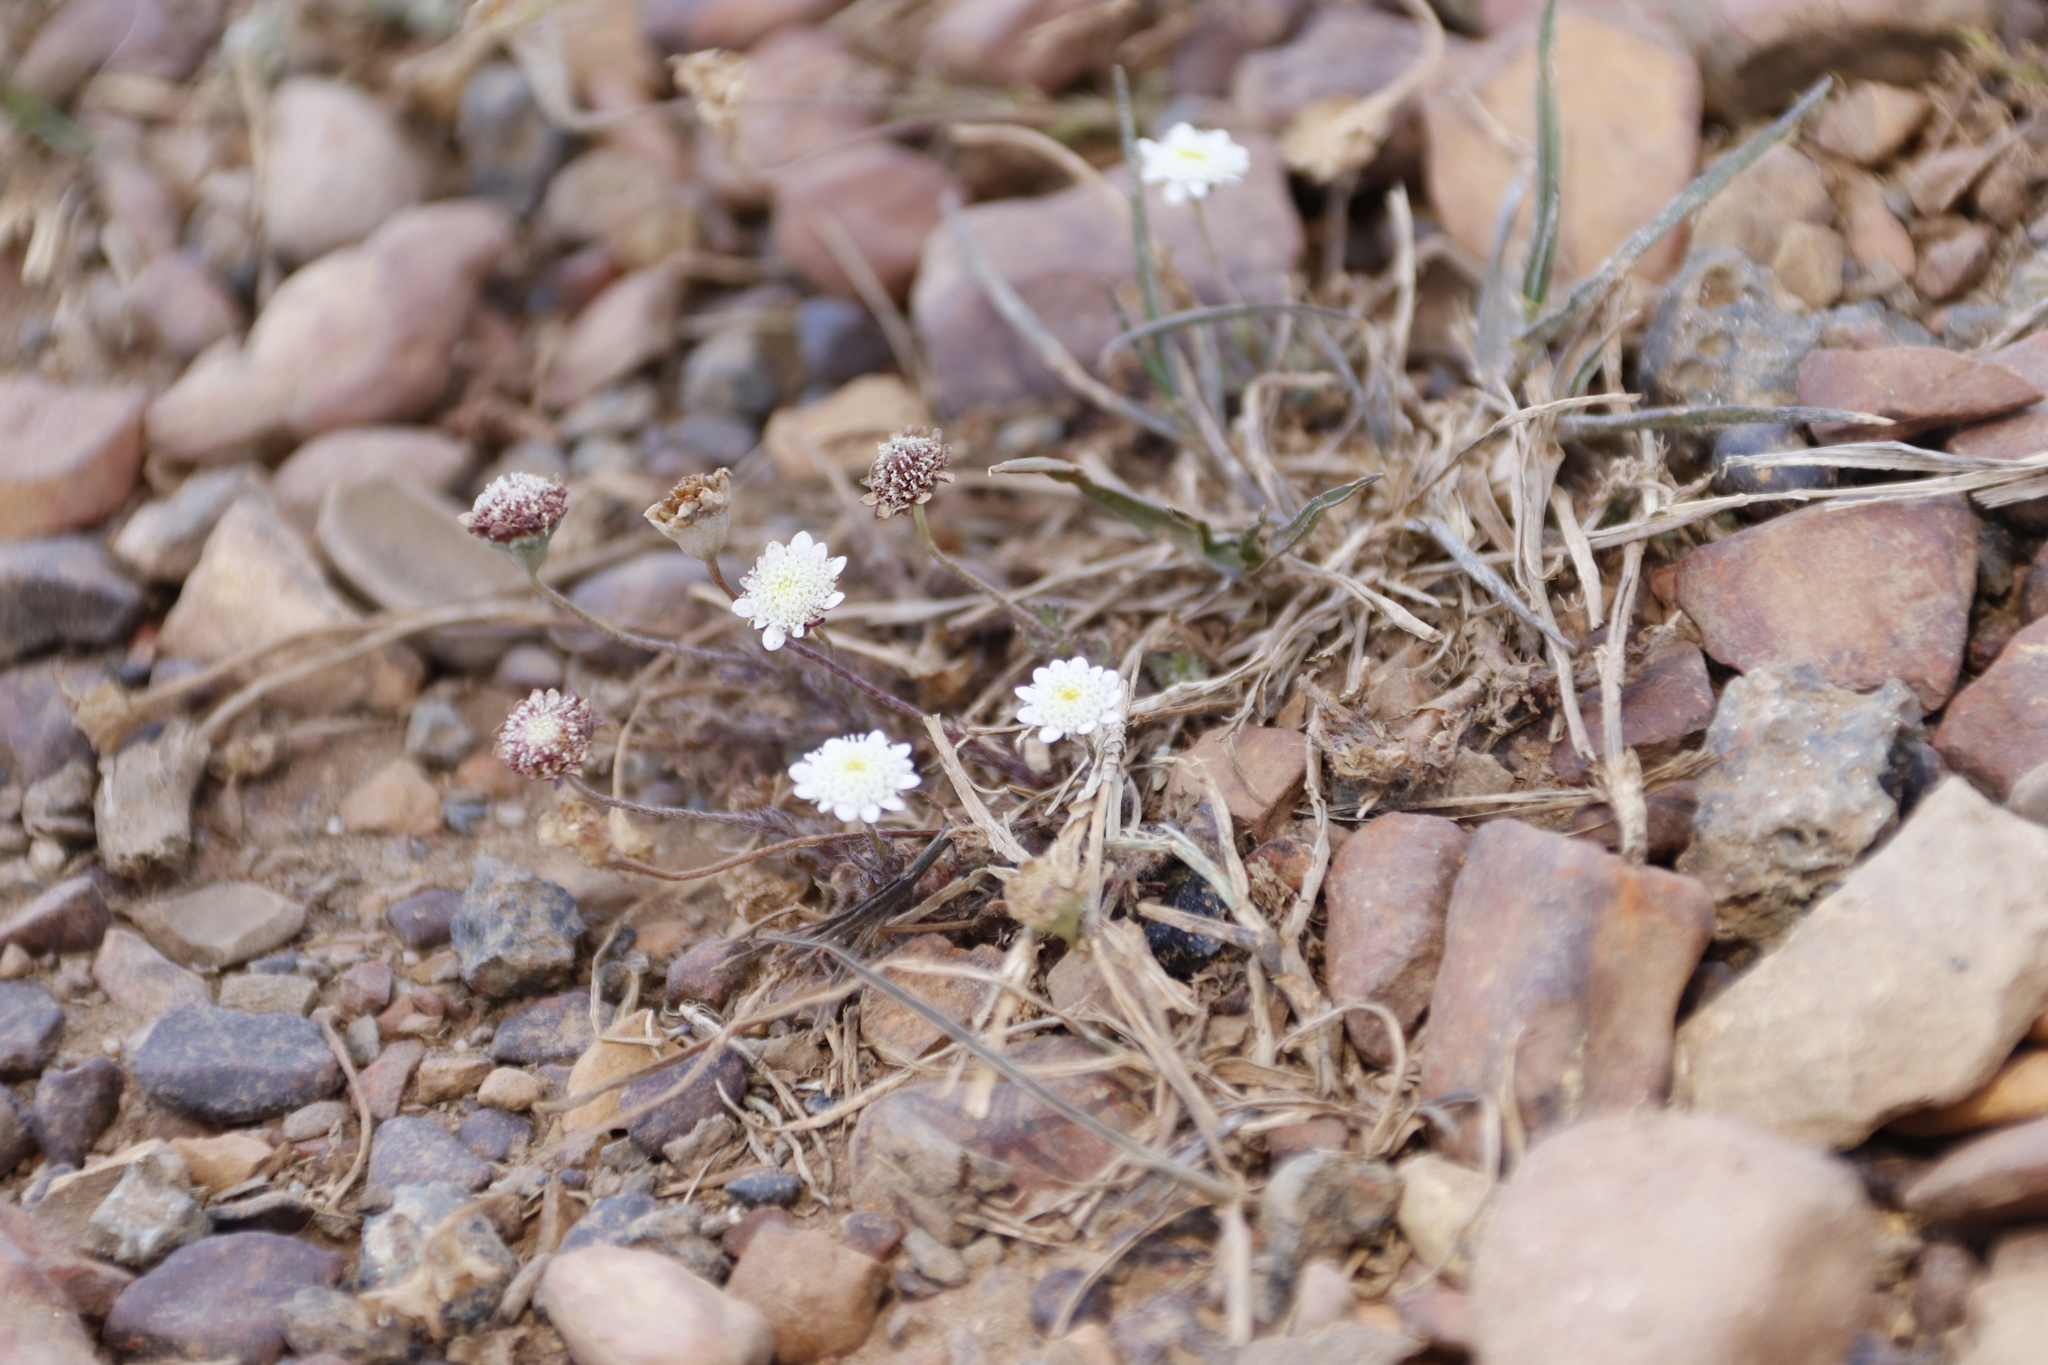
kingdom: Plantae
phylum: Tracheophyta
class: Magnoliopsida
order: Asterales
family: Asteraceae
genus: Cotula
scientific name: Cotula turbinata
